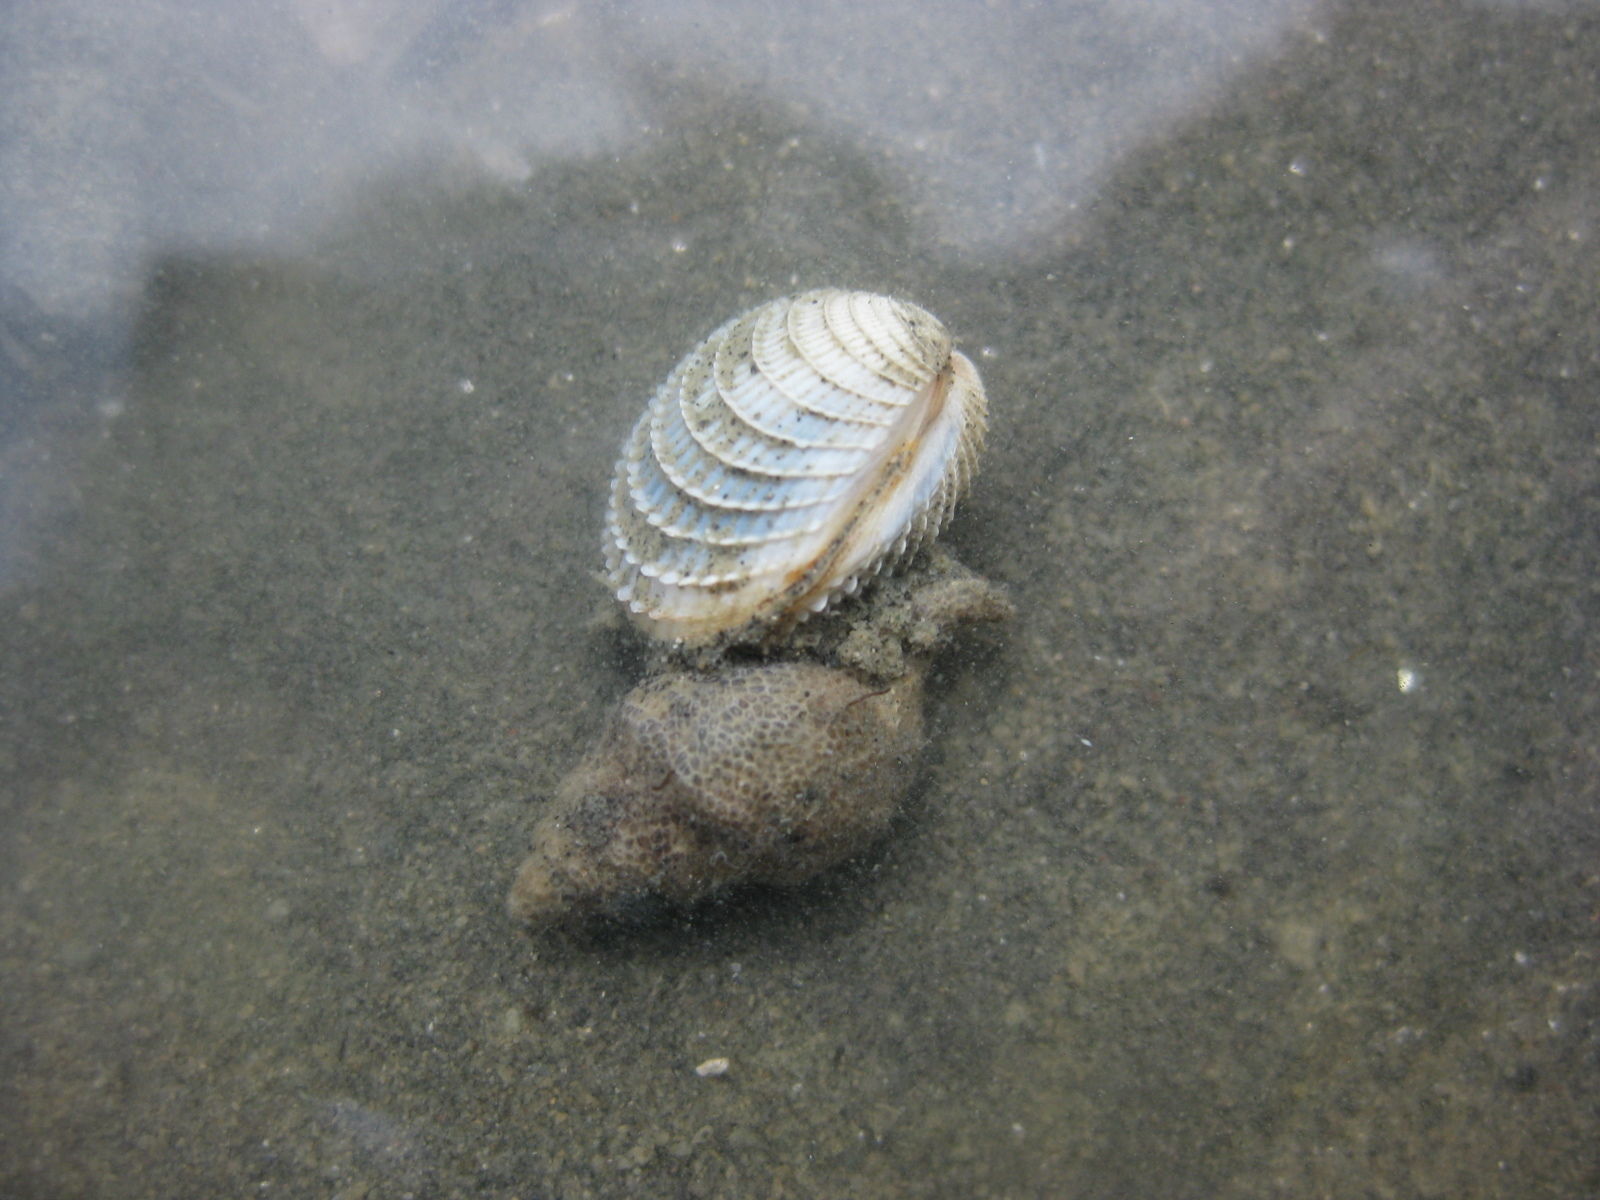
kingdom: Animalia
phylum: Mollusca
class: Bivalvia
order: Venerida
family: Veneridae
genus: Austrovenus
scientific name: Austrovenus stutchburyi
